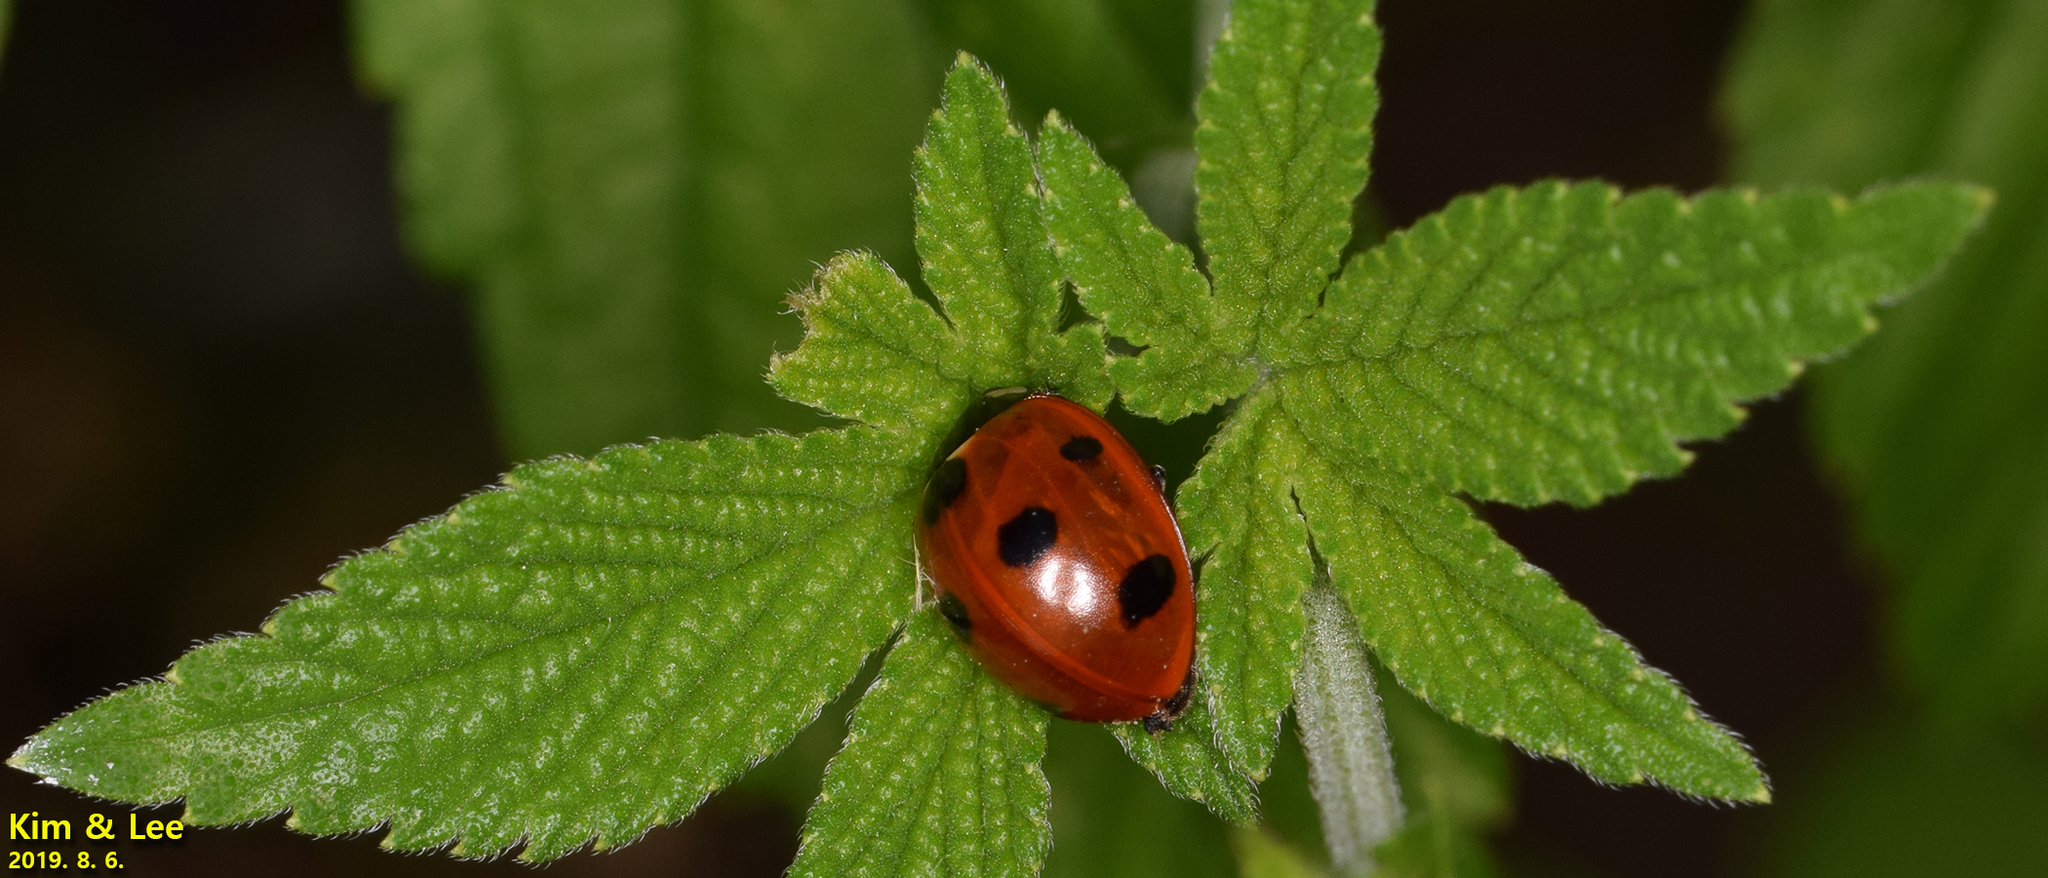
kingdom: Animalia
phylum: Arthropoda
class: Insecta
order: Coleoptera
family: Coccinellidae
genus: Coccinella
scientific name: Coccinella septempunctata
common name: Sevenspotted lady beetle
